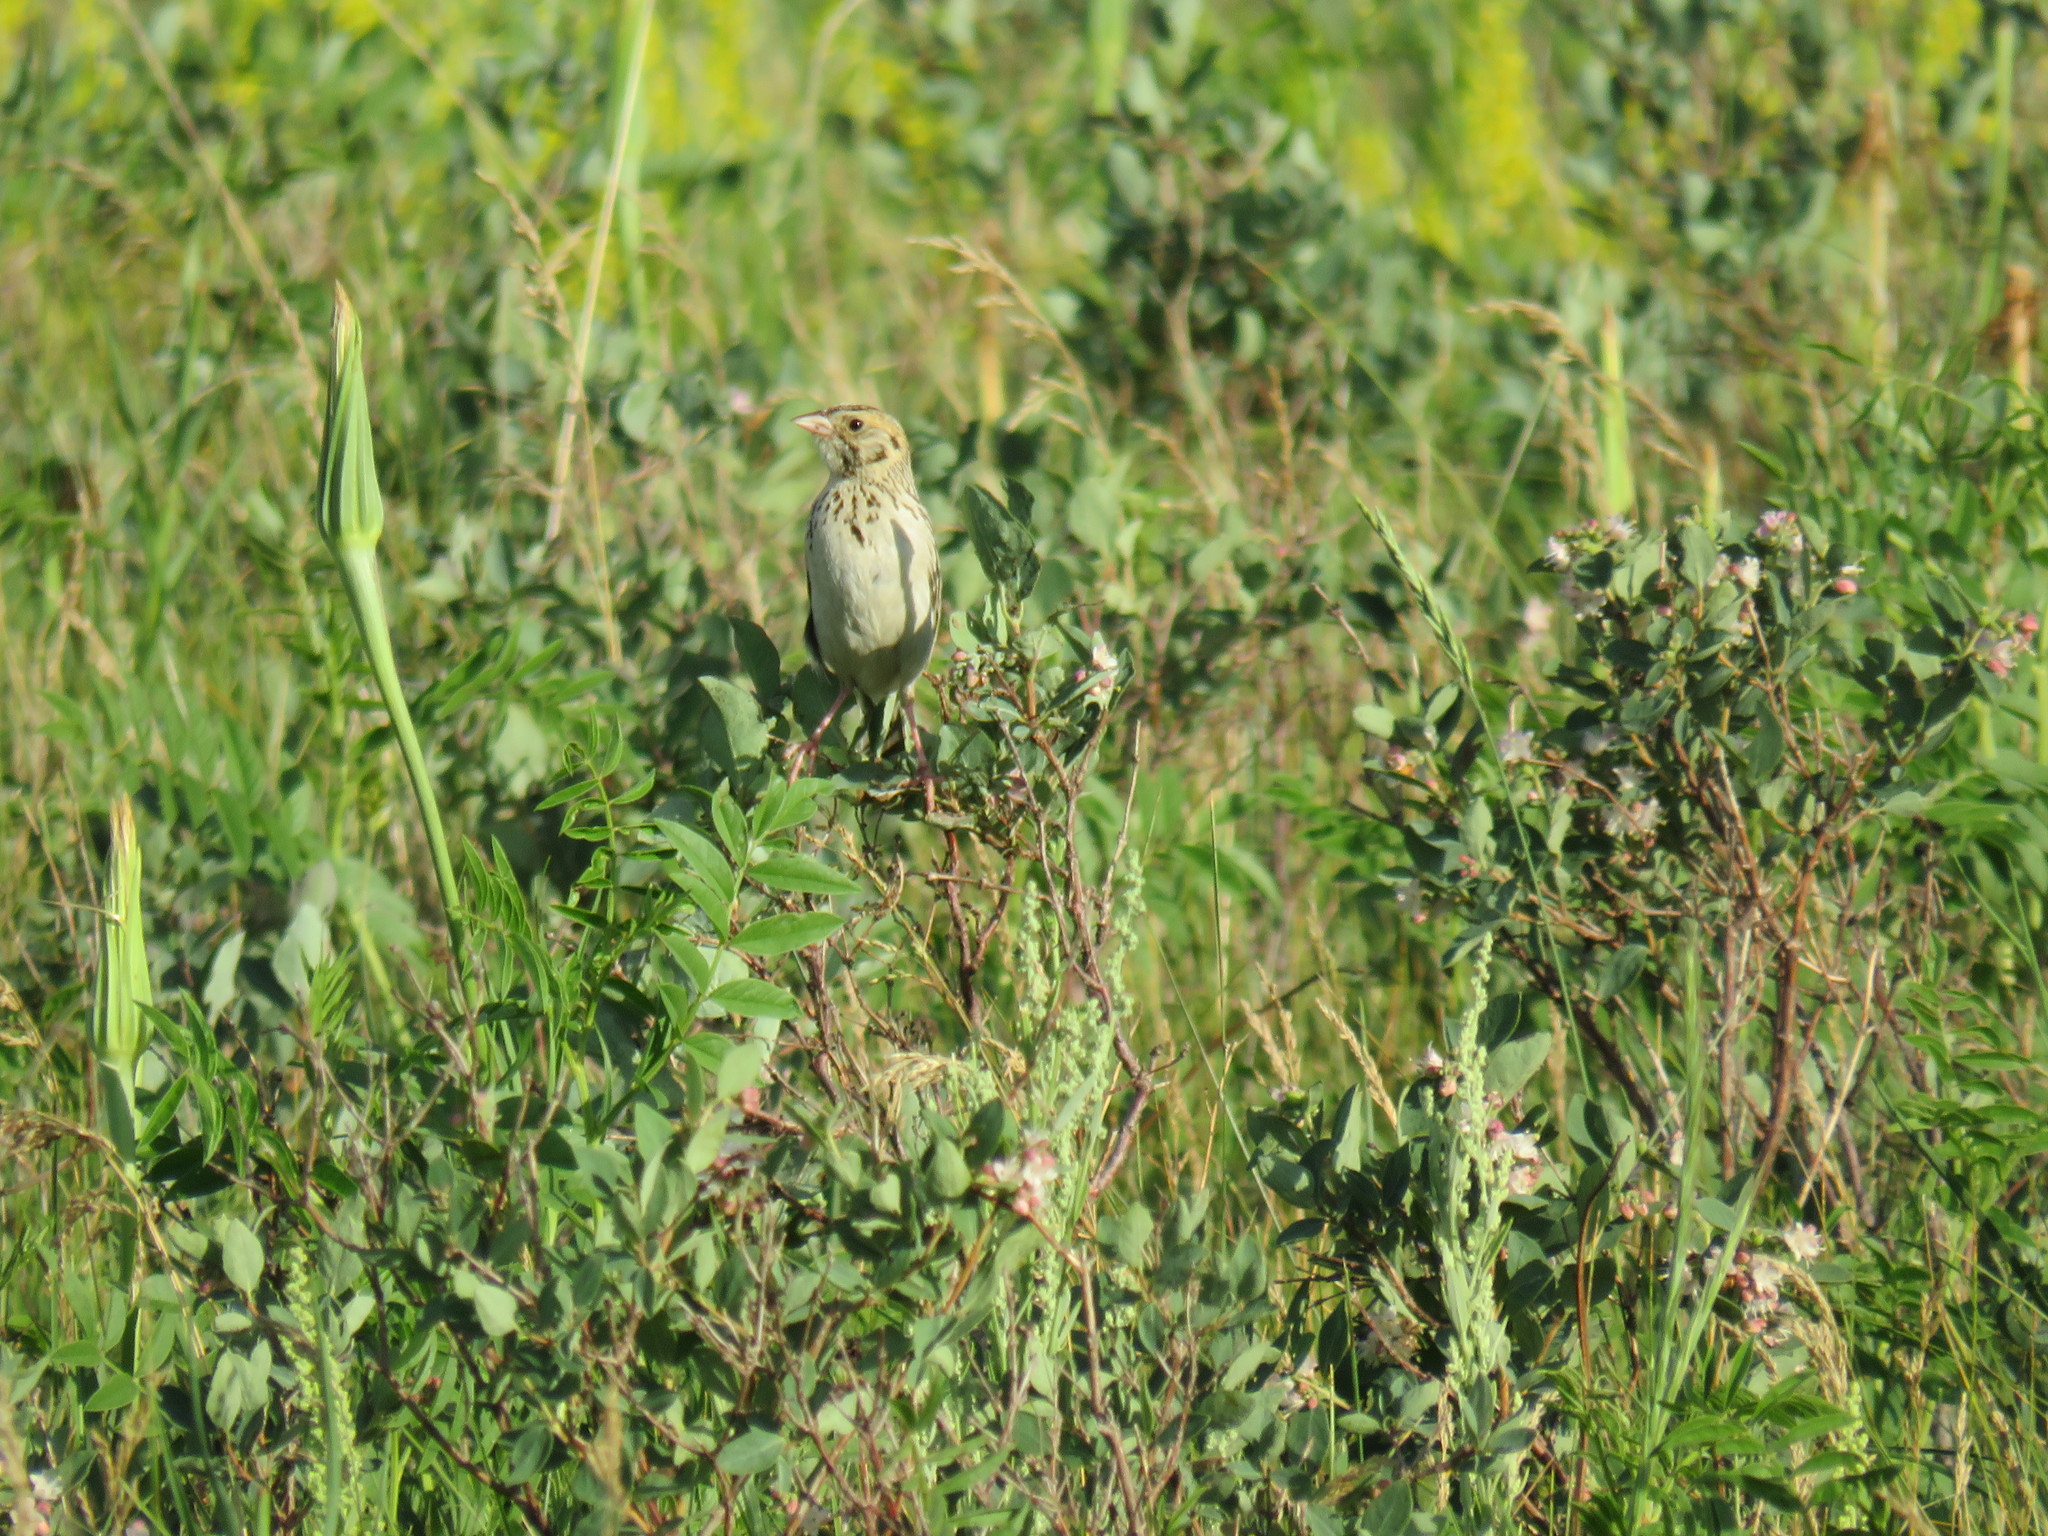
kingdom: Animalia
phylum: Chordata
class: Aves
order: Passeriformes
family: Passerellidae
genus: Centronyx
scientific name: Centronyx bairdii
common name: Baird's sparrow
